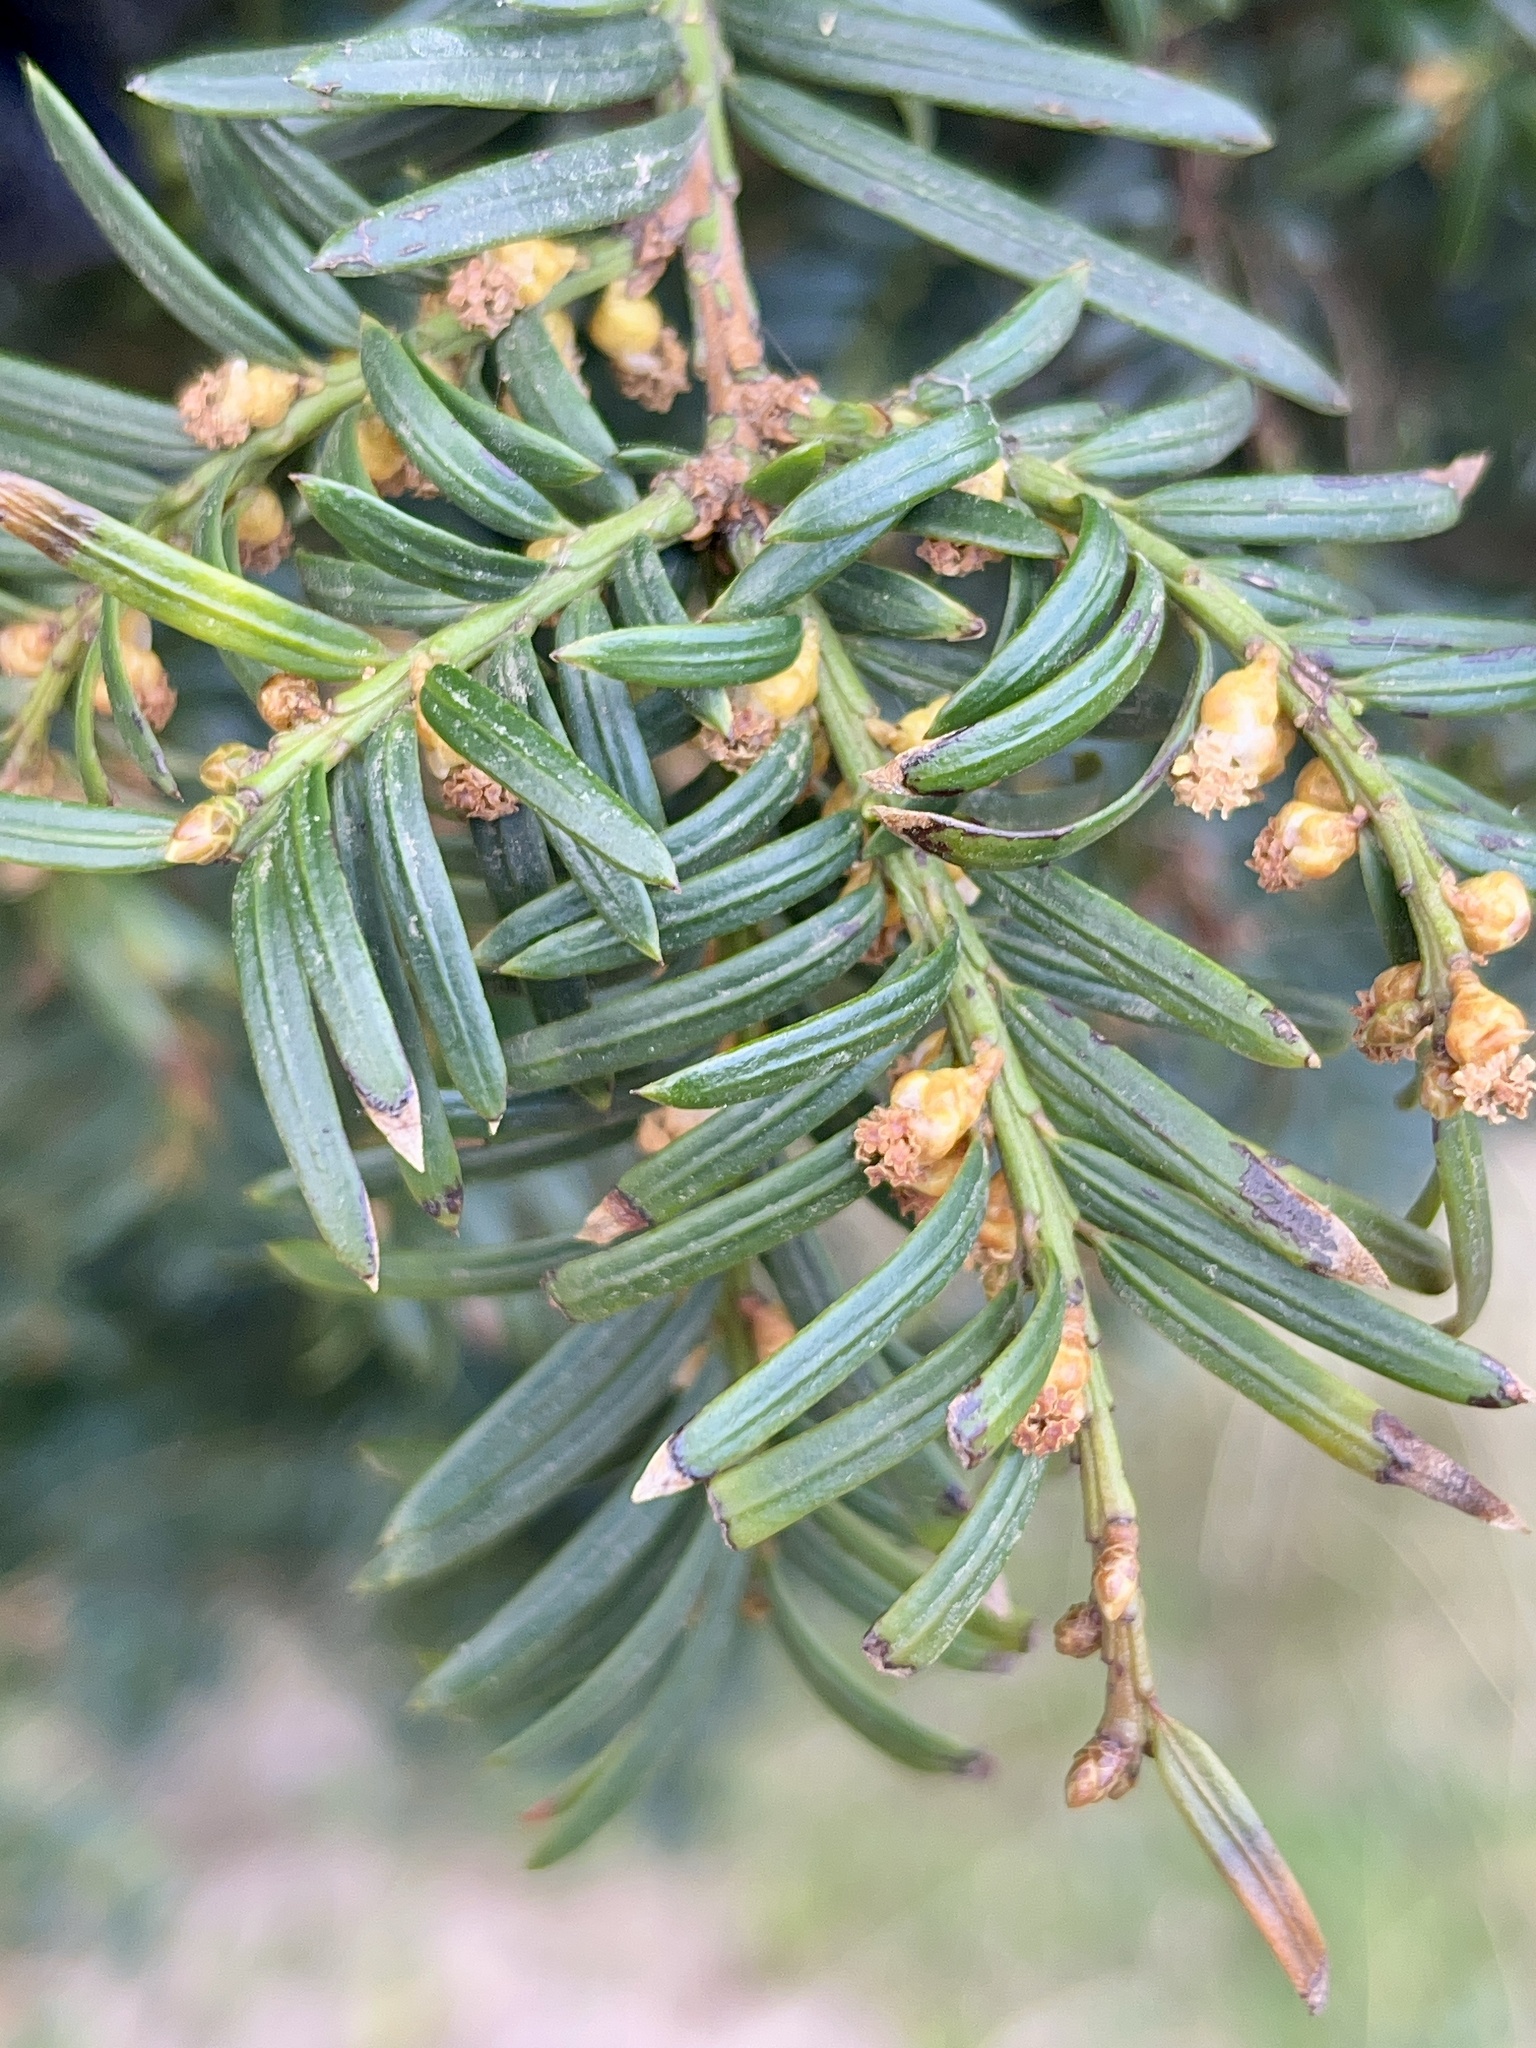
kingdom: Plantae
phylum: Tracheophyta
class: Pinopsida
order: Pinales
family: Taxaceae
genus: Taxus
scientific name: Taxus baccata
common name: Yew
